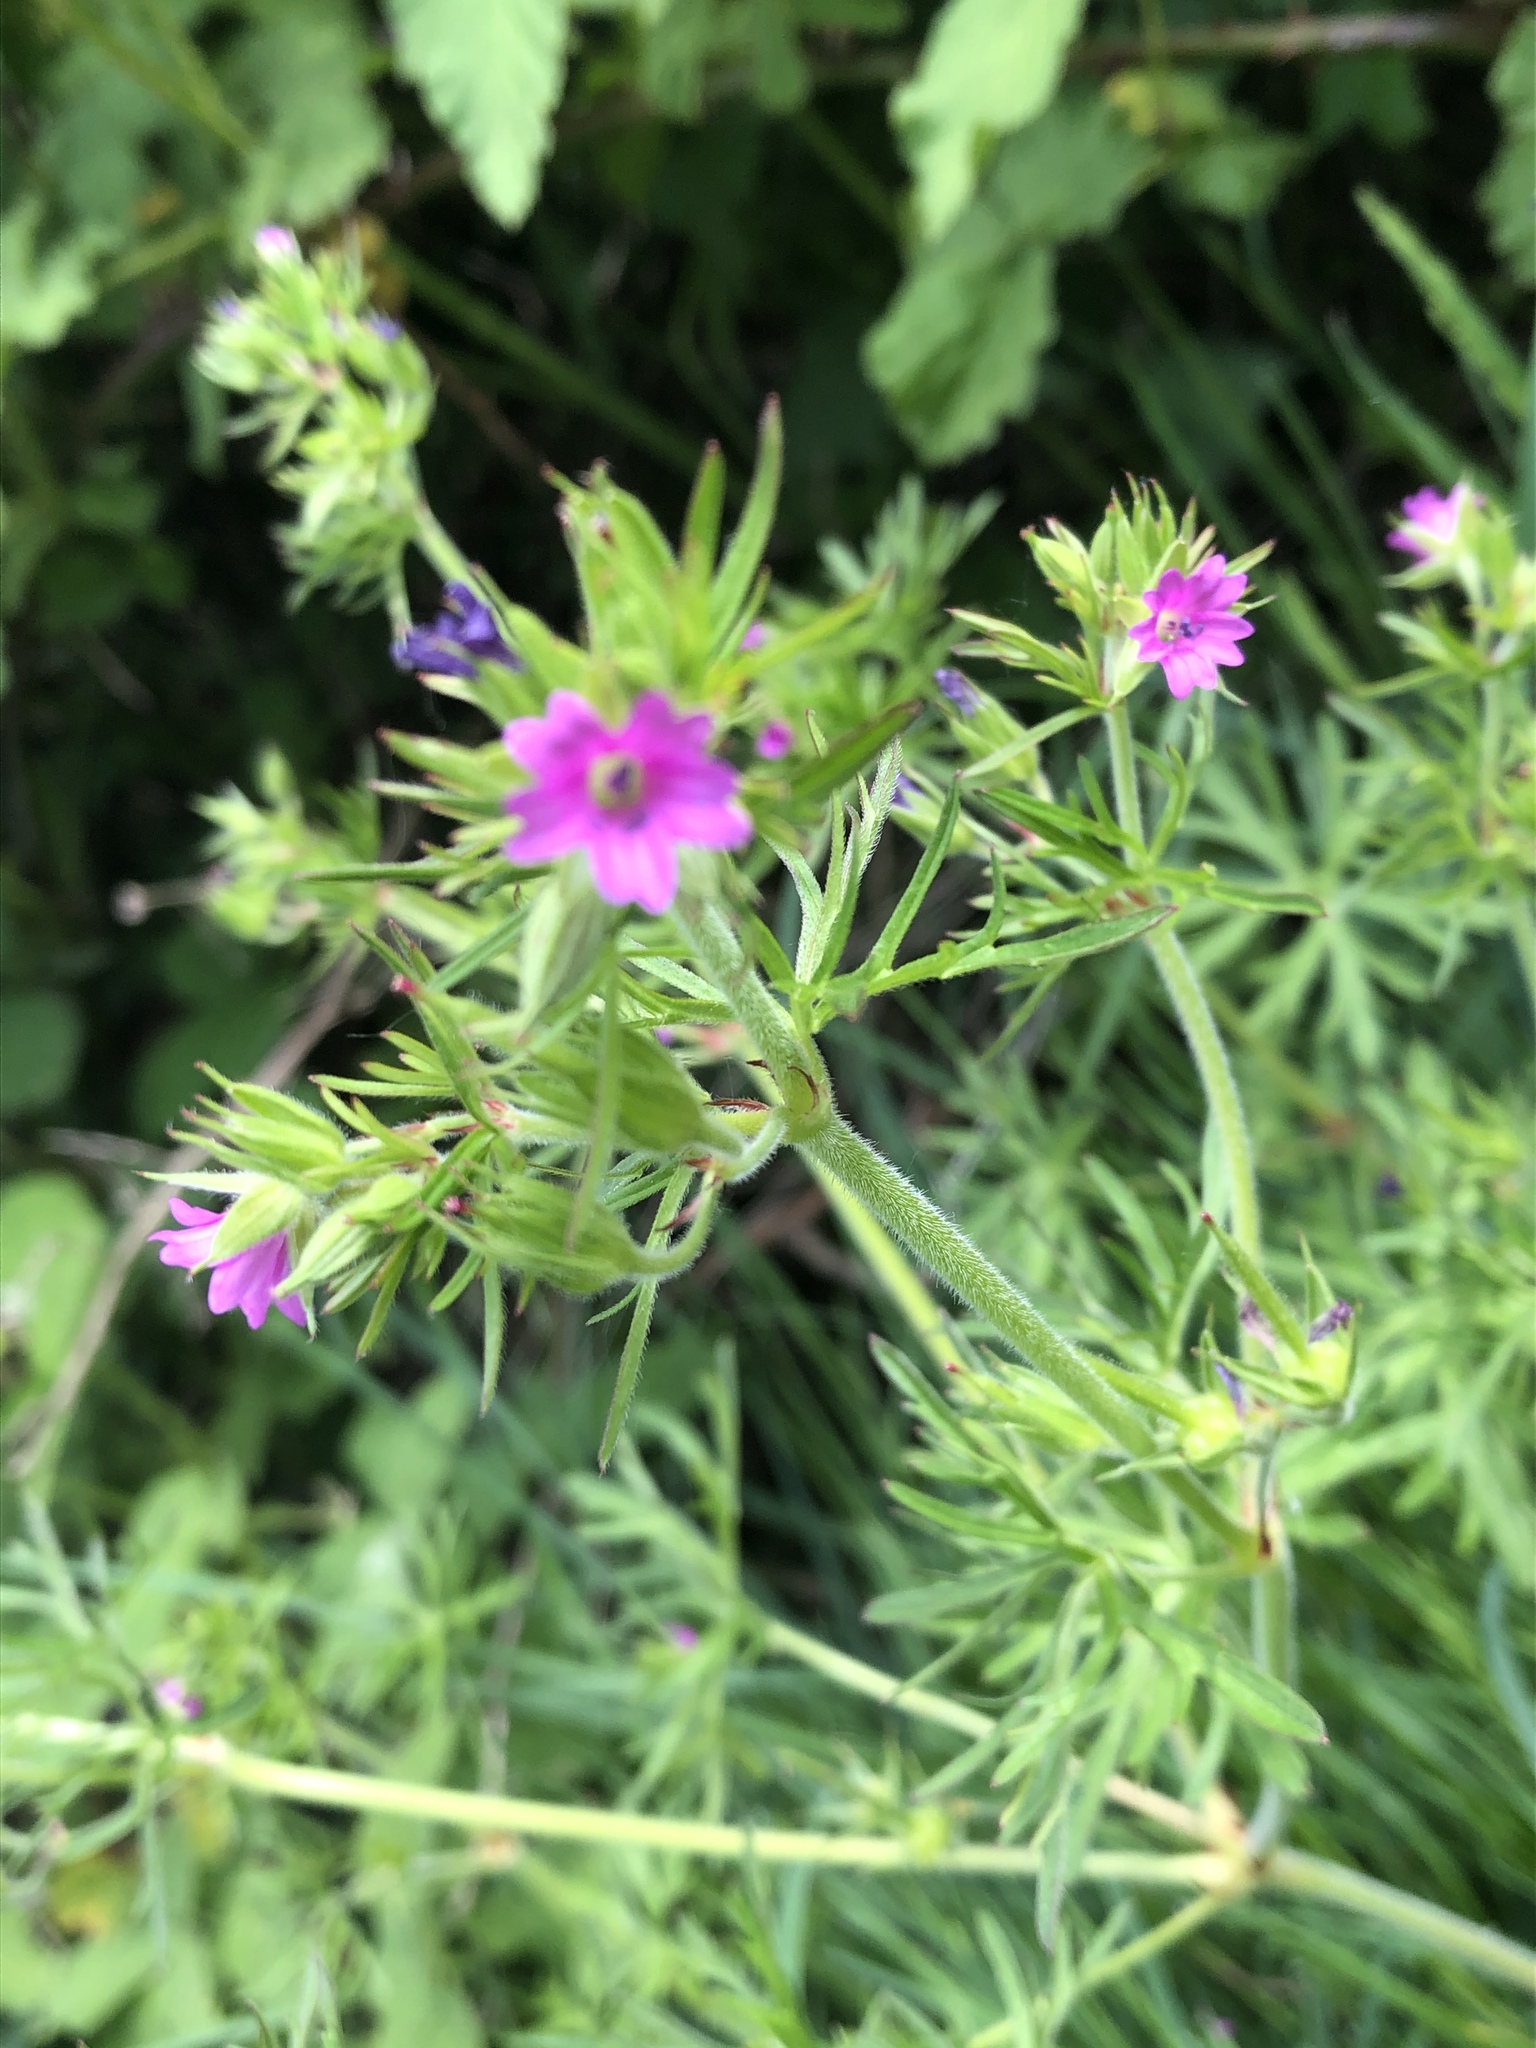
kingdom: Plantae
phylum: Tracheophyta
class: Magnoliopsida
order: Geraniales
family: Geraniaceae
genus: Geranium
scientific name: Geranium dissectum
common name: Cut-leaved crane's-bill
